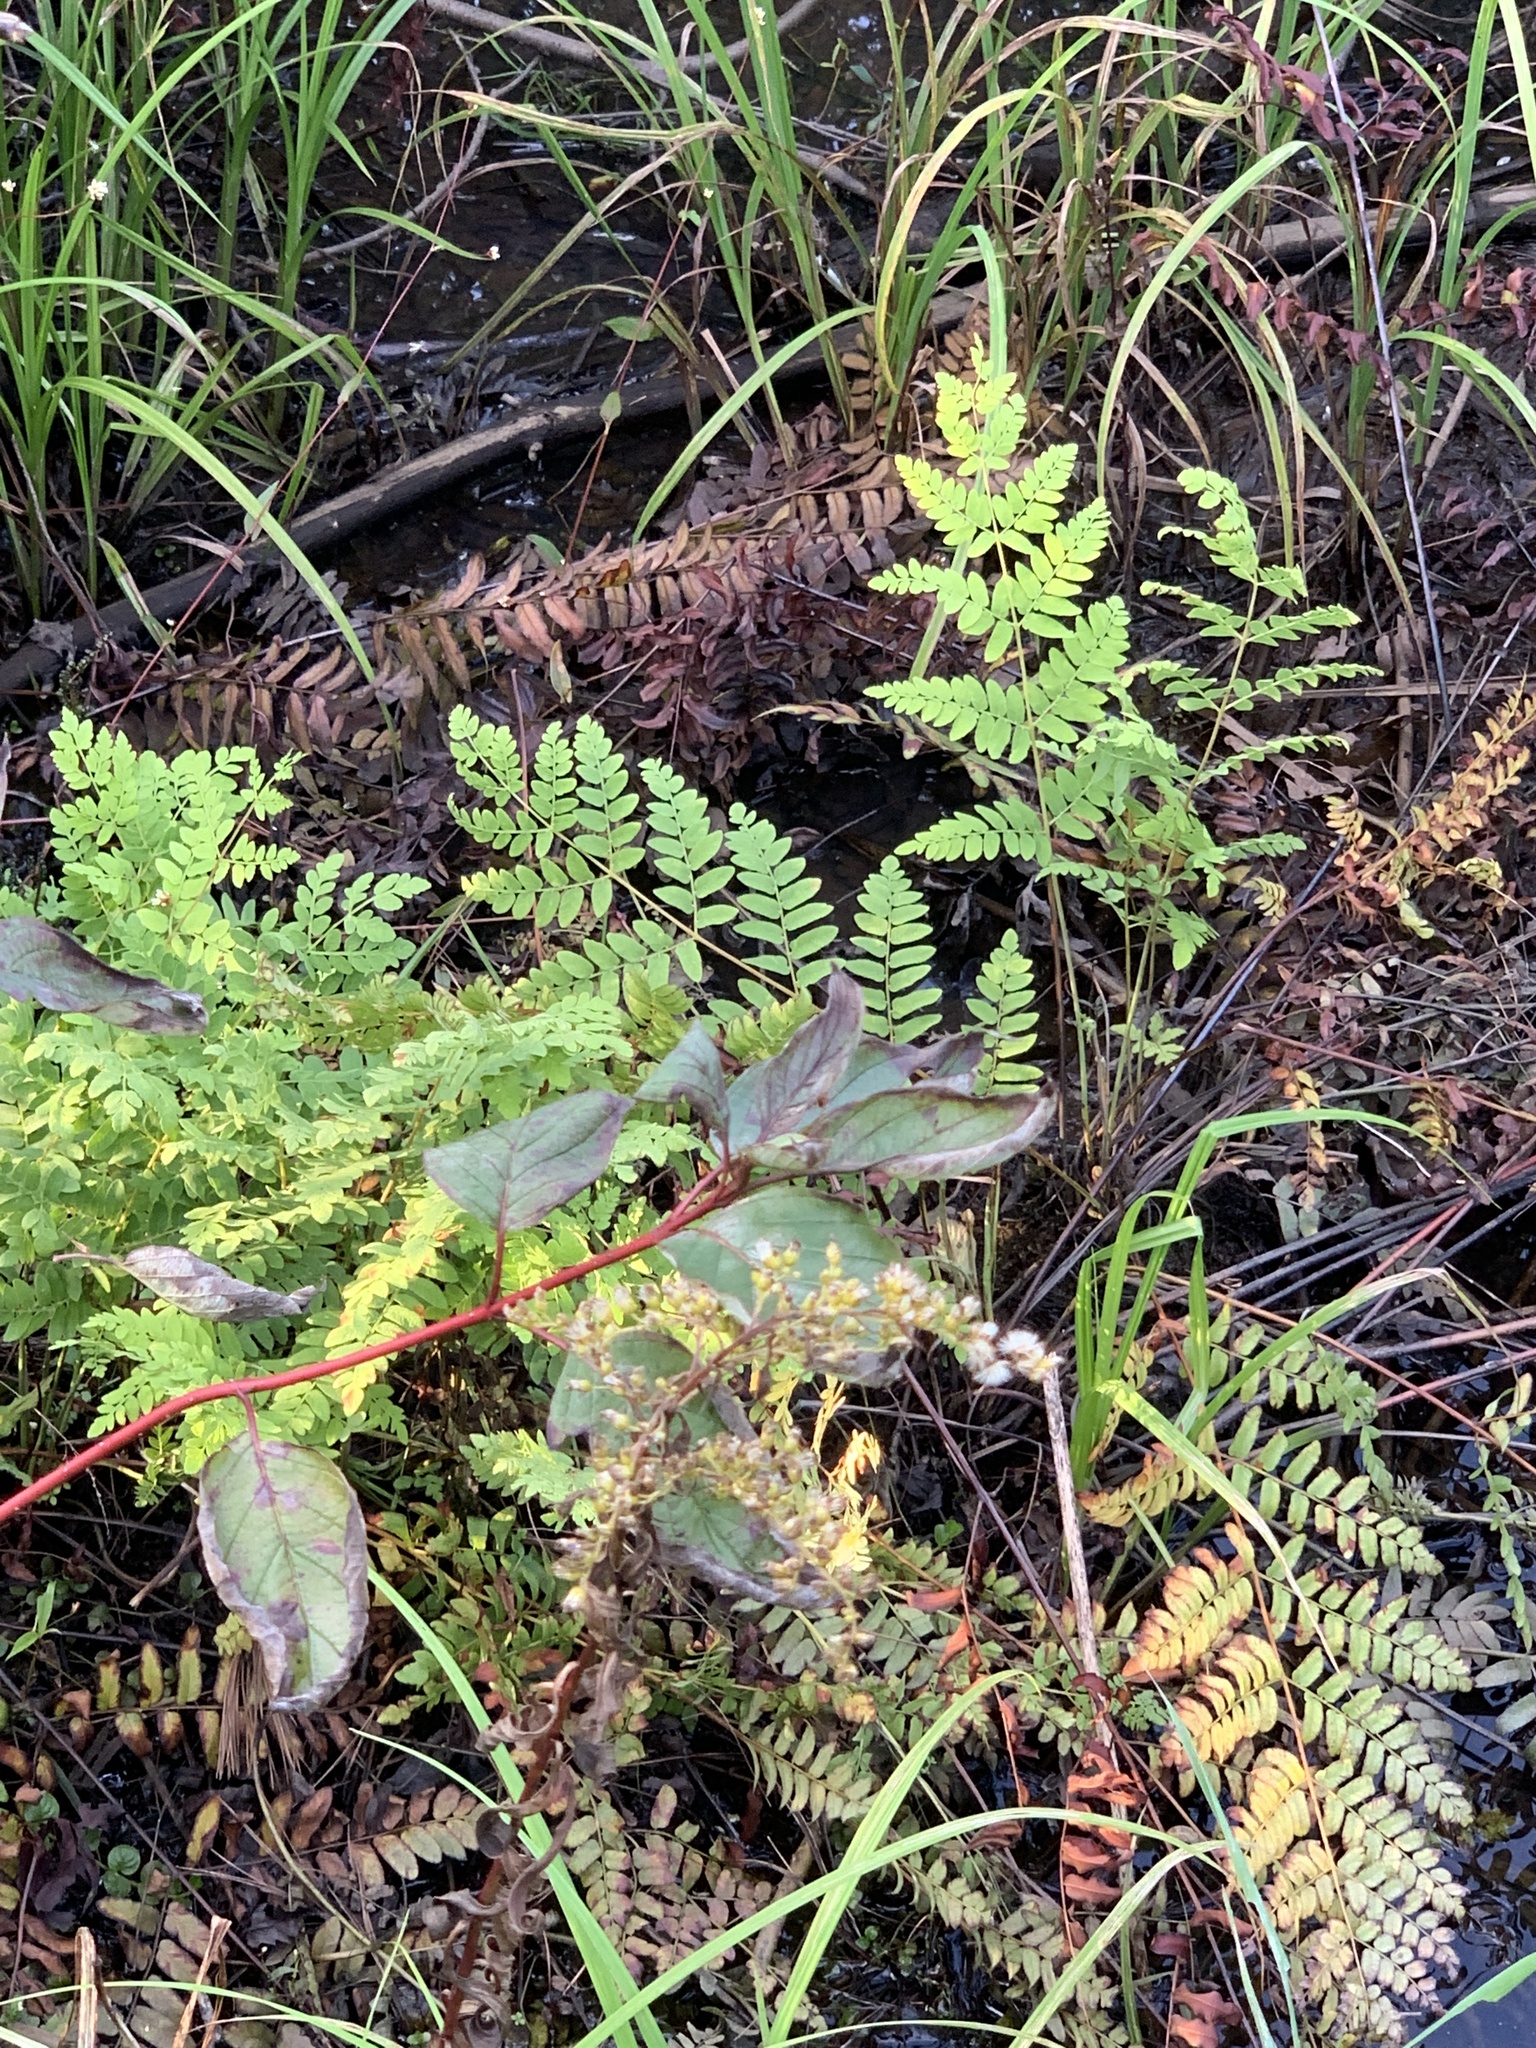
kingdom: Plantae
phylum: Tracheophyta
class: Polypodiopsida
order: Osmundales
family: Osmundaceae
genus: Osmunda
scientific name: Osmunda spectabilis
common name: American royal fern
